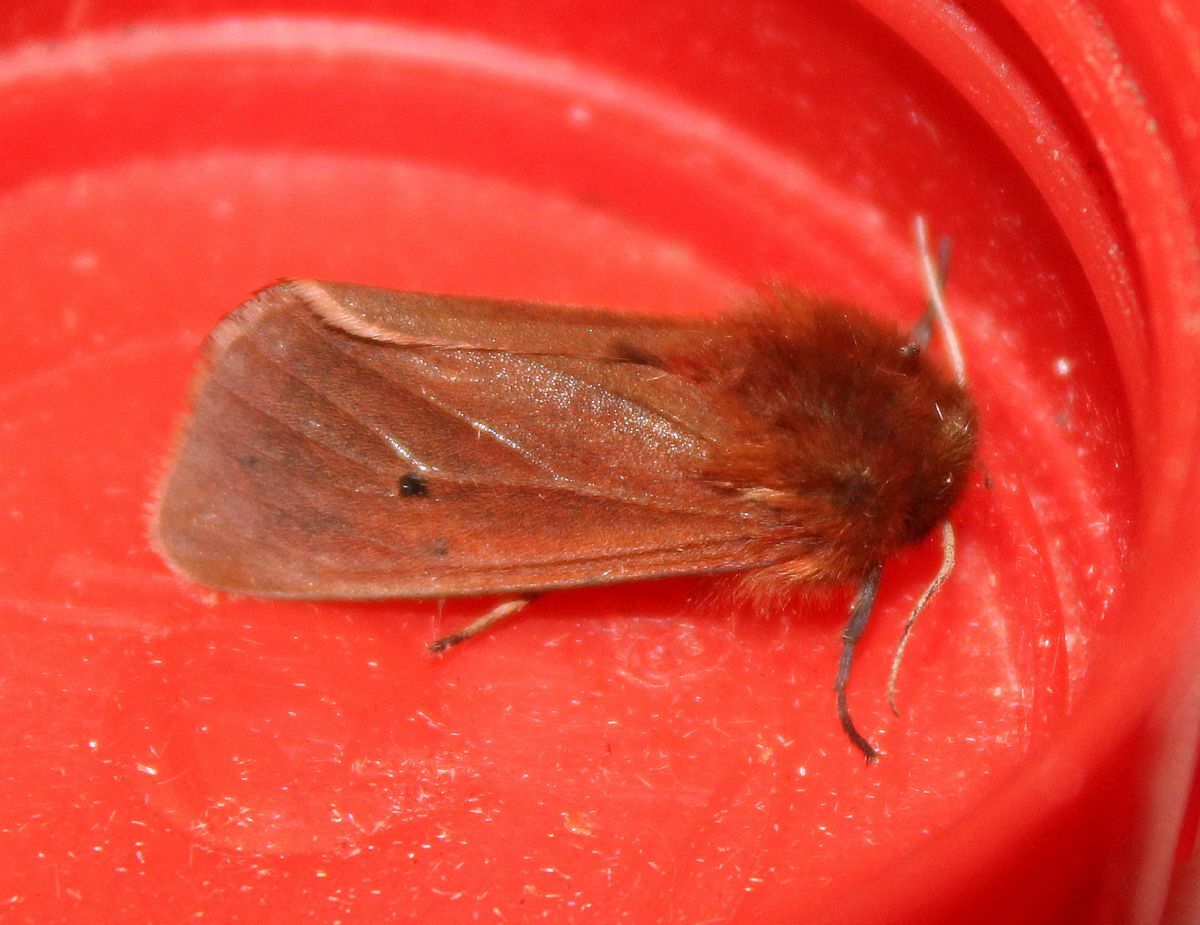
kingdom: Animalia
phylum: Arthropoda
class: Insecta
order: Lepidoptera
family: Erebidae
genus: Phragmatobia
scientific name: Phragmatobia fuliginosa
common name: Ruby tiger
